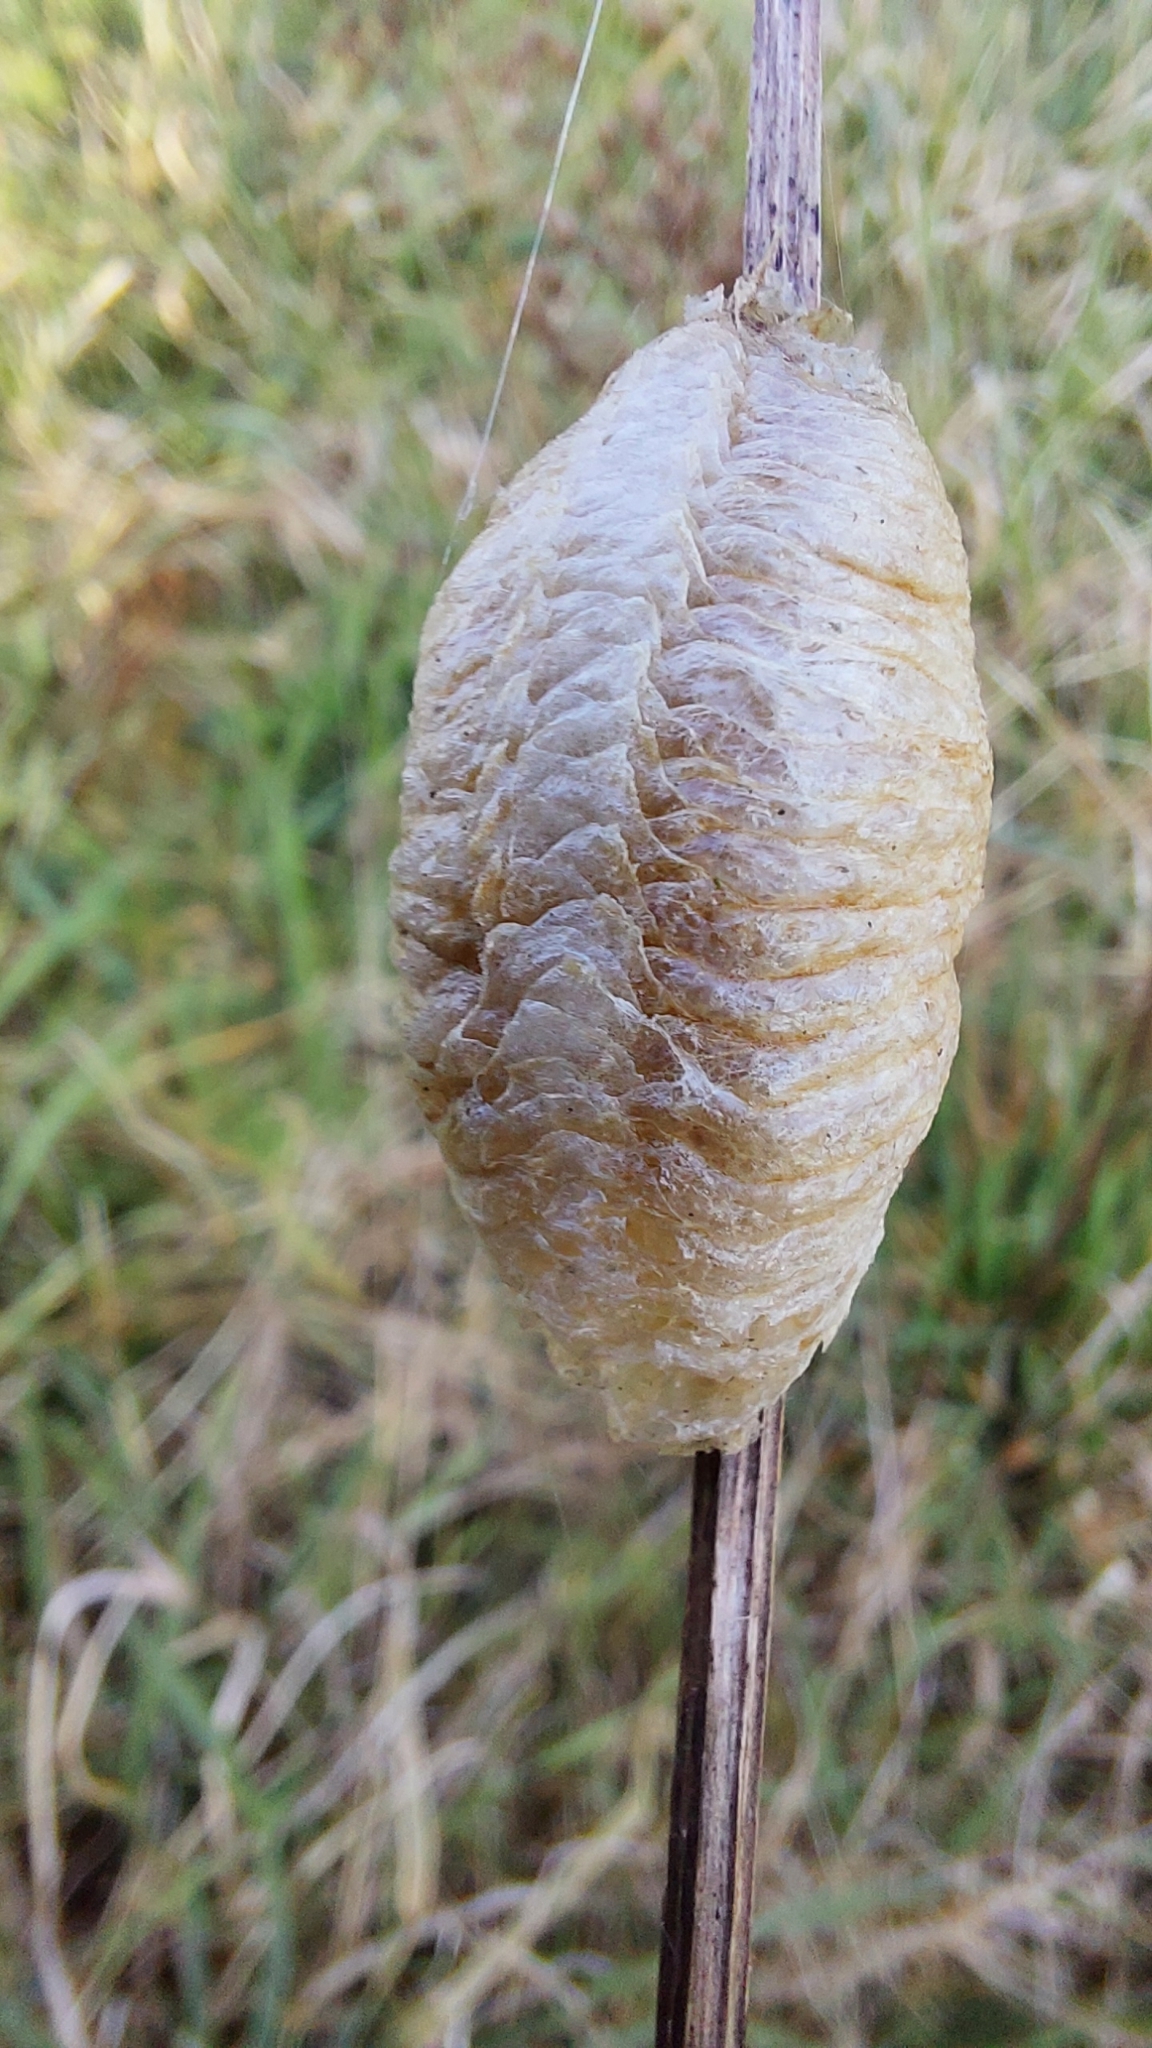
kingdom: Animalia
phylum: Arthropoda
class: Insecta
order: Mantodea
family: Mantidae
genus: Mantis
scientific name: Mantis religiosa
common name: Praying mantis
